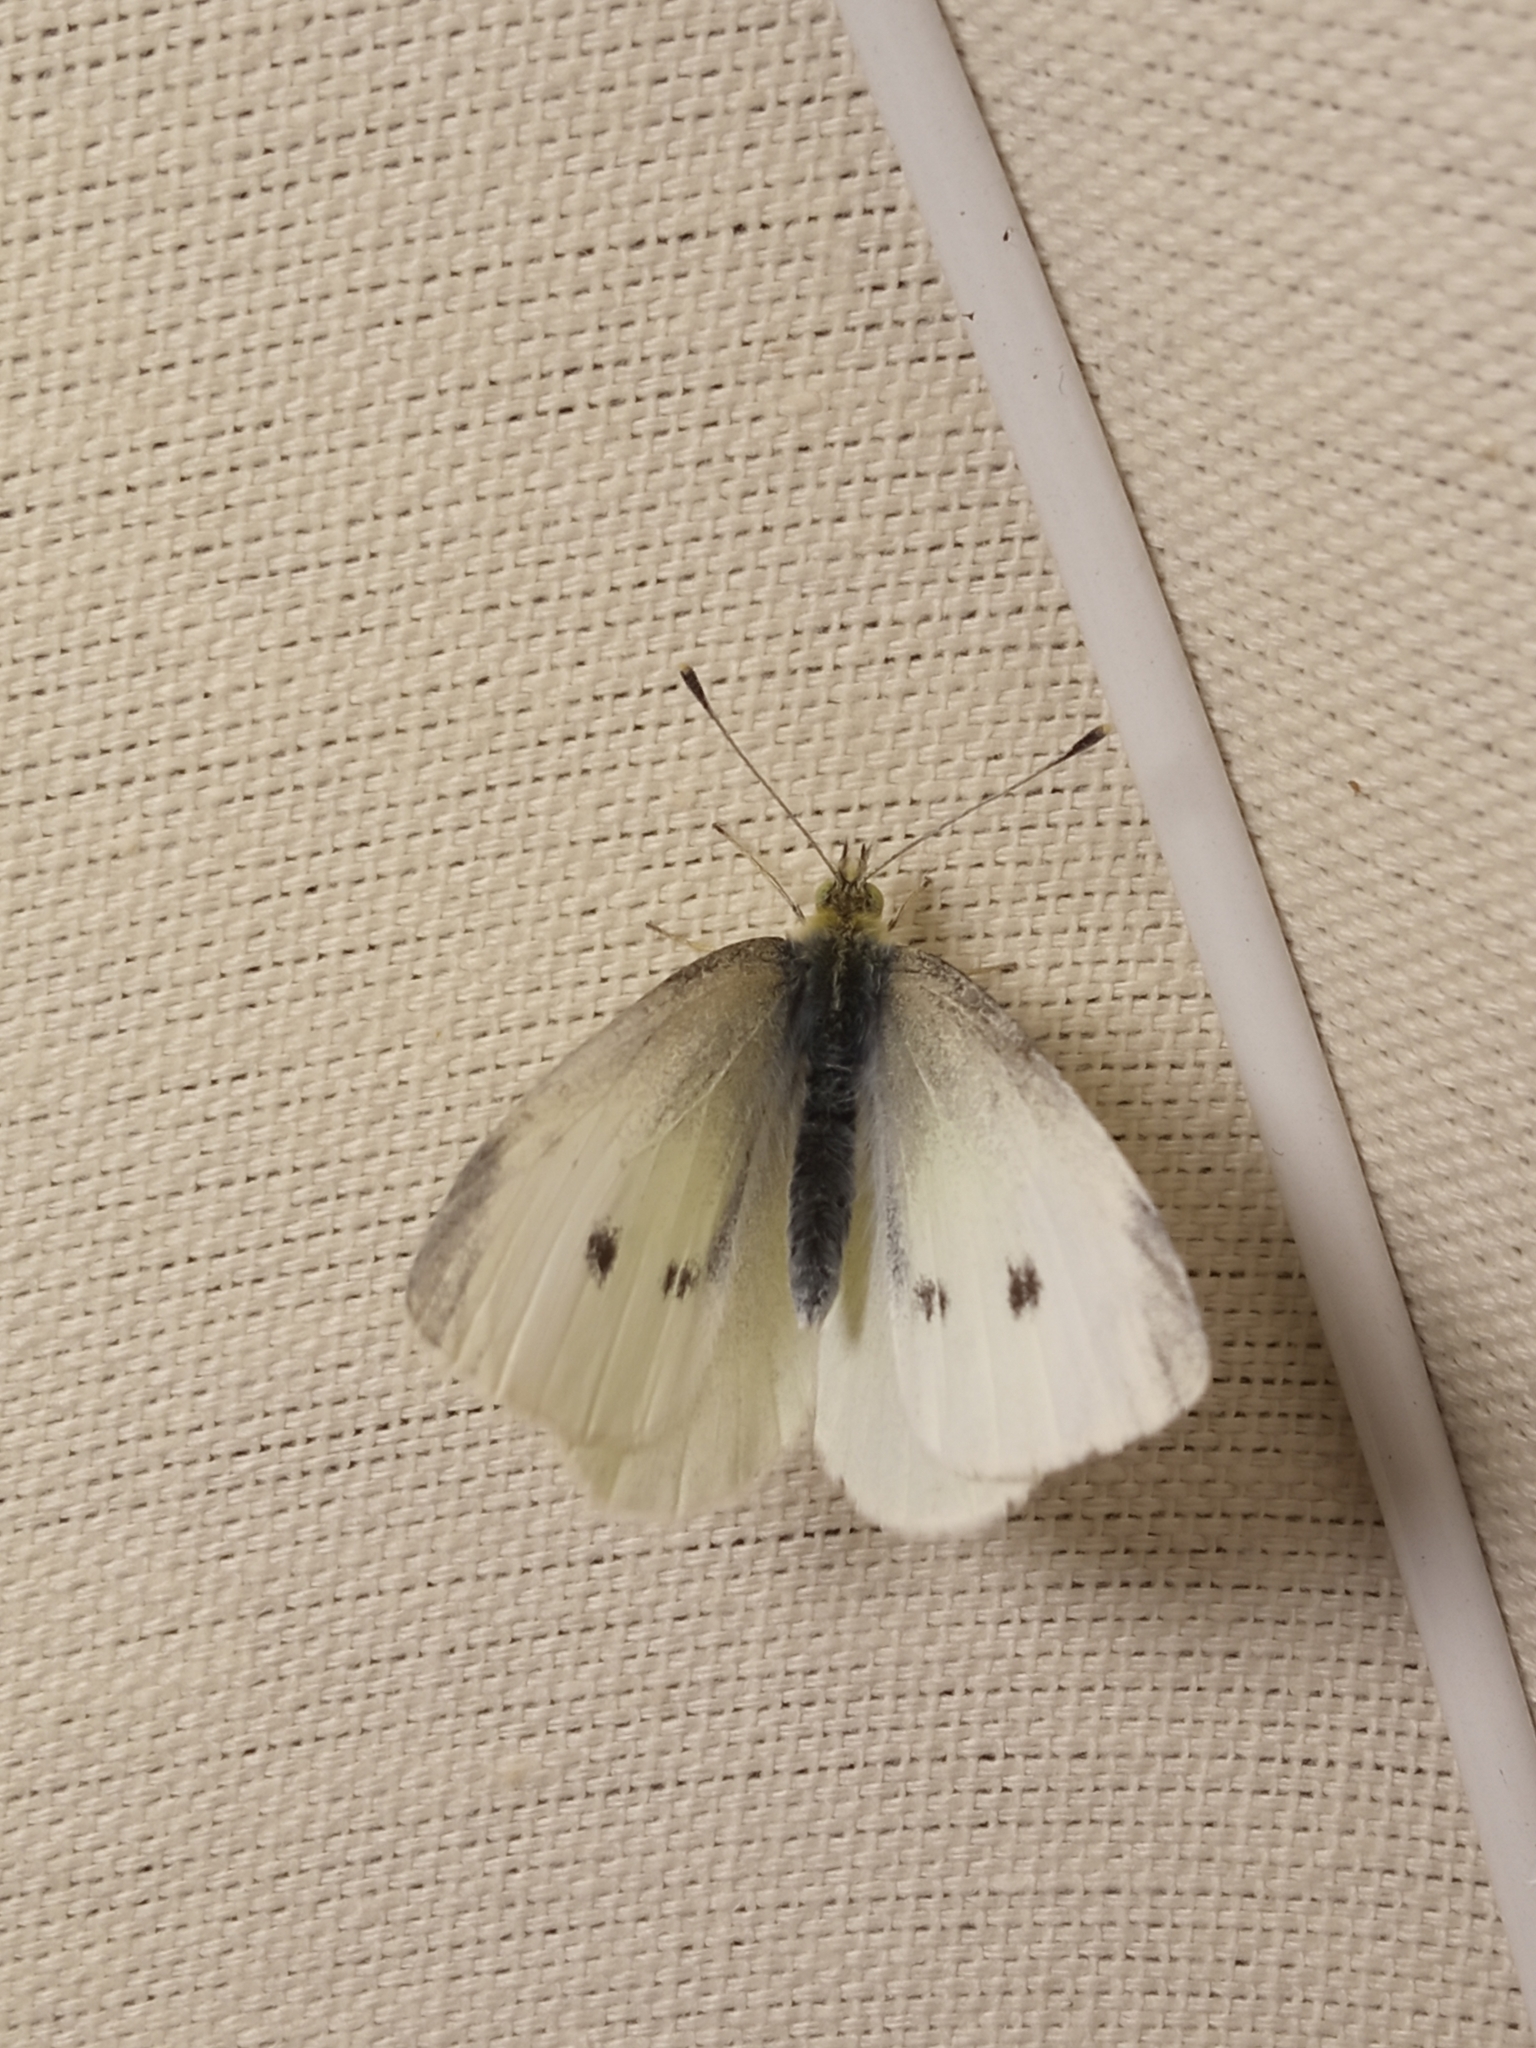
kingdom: Animalia
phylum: Arthropoda
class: Insecta
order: Lepidoptera
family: Pieridae
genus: Pieris
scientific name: Pieris rapae
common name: Small white
